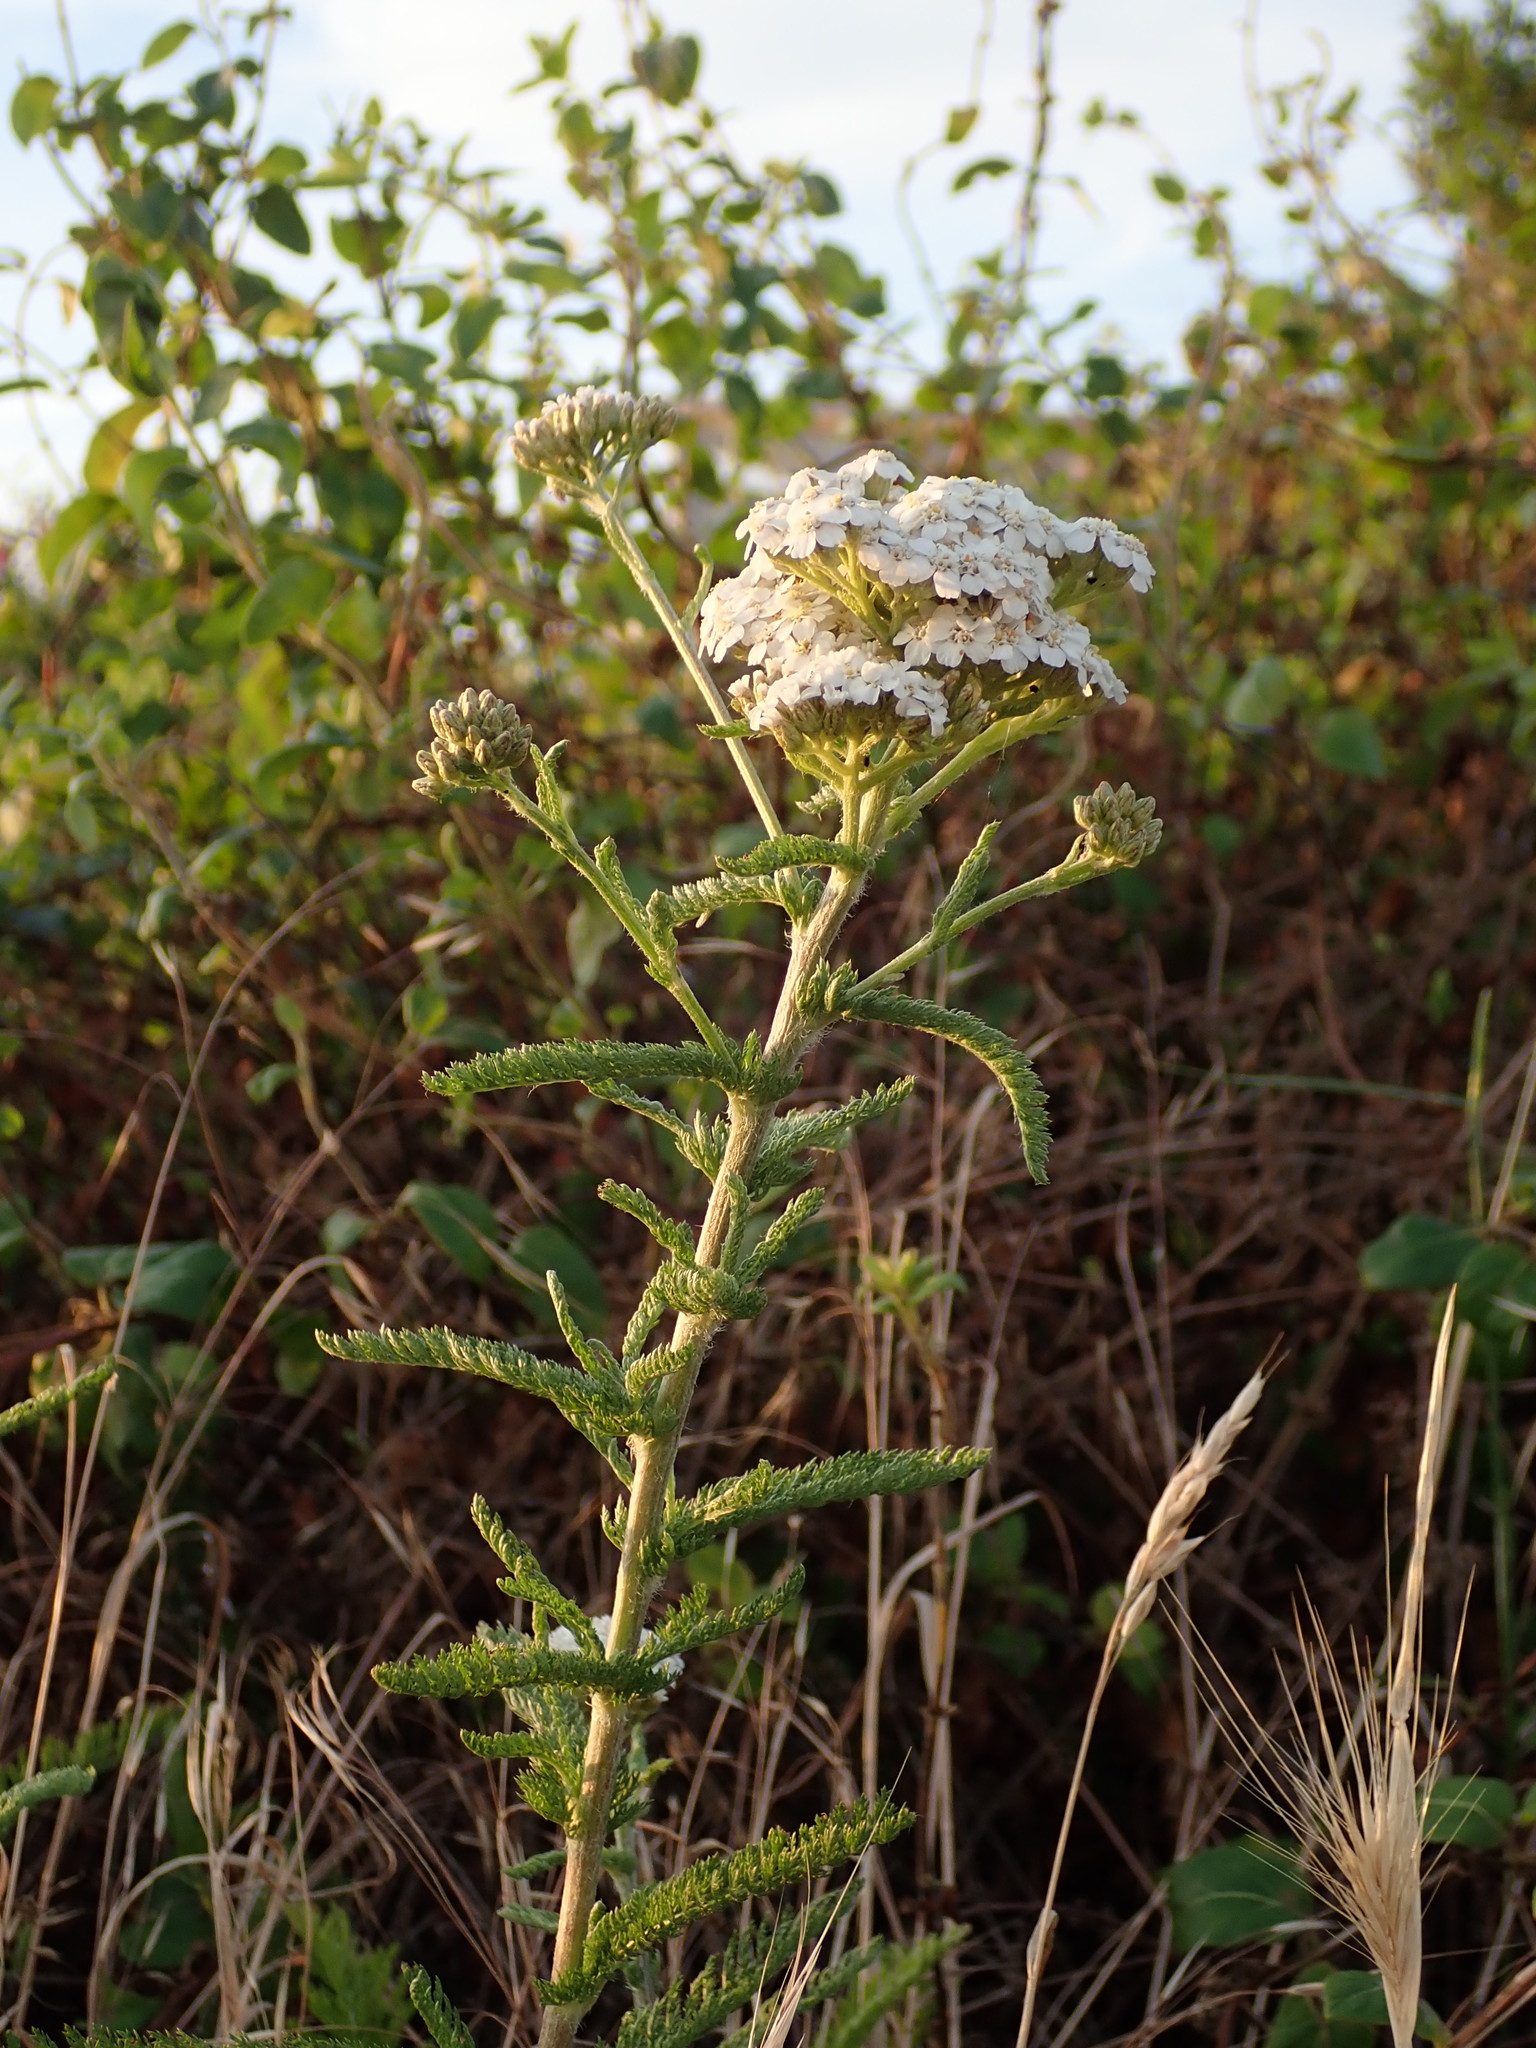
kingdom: Plantae
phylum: Tracheophyta
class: Magnoliopsida
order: Asterales
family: Asteraceae
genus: Achillea
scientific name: Achillea millefolium
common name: Yarrow
